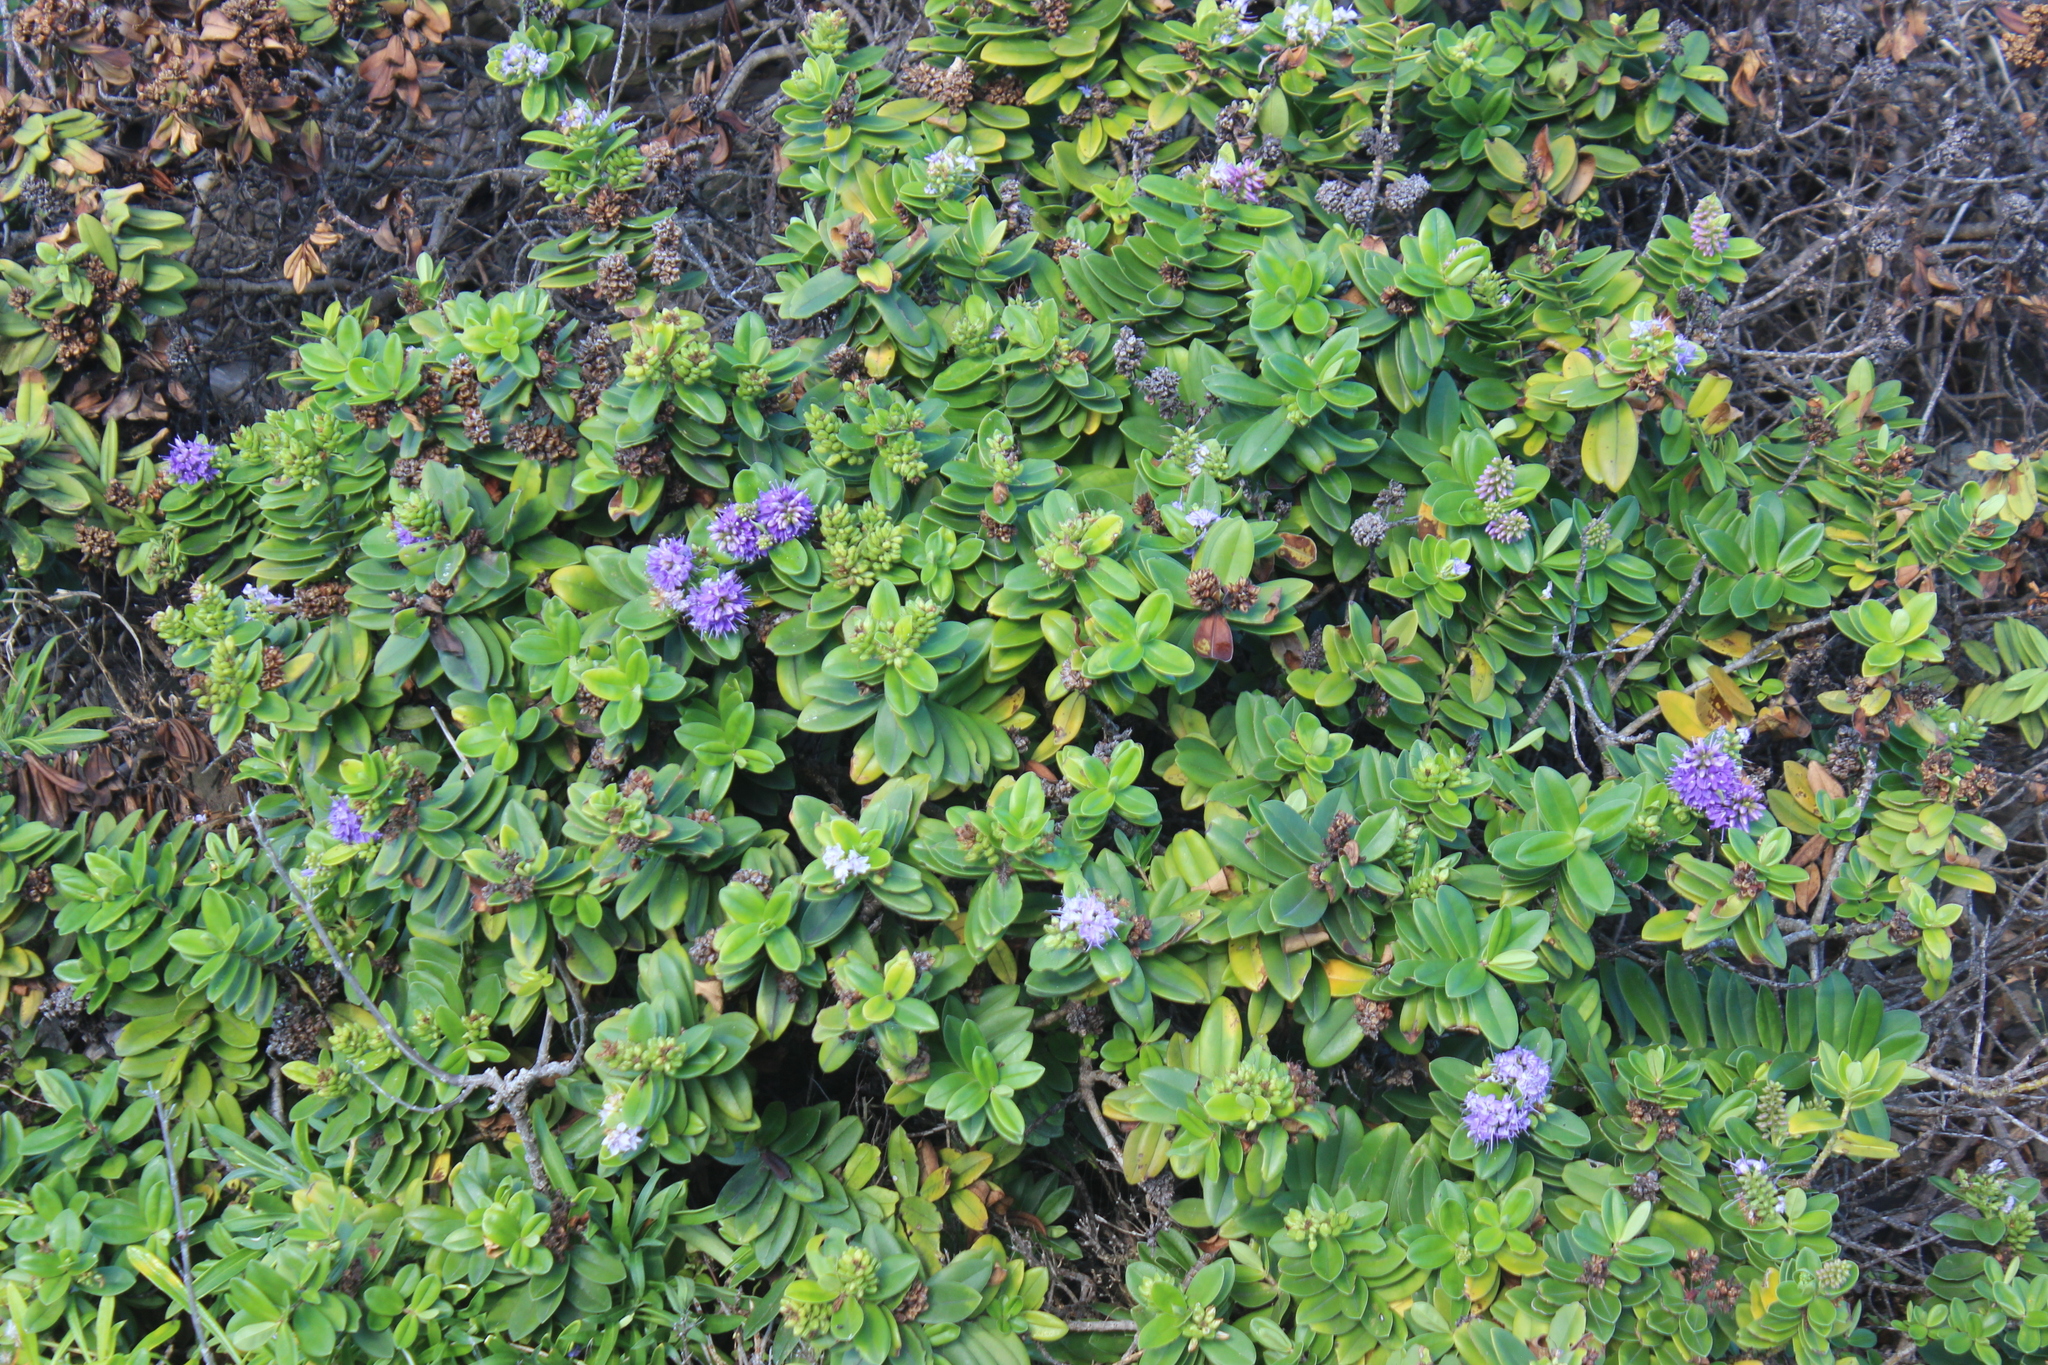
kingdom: Plantae
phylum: Tracheophyta
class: Magnoliopsida
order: Lamiales
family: Plantaginaceae
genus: Veronica
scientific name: Veronica speciosa
